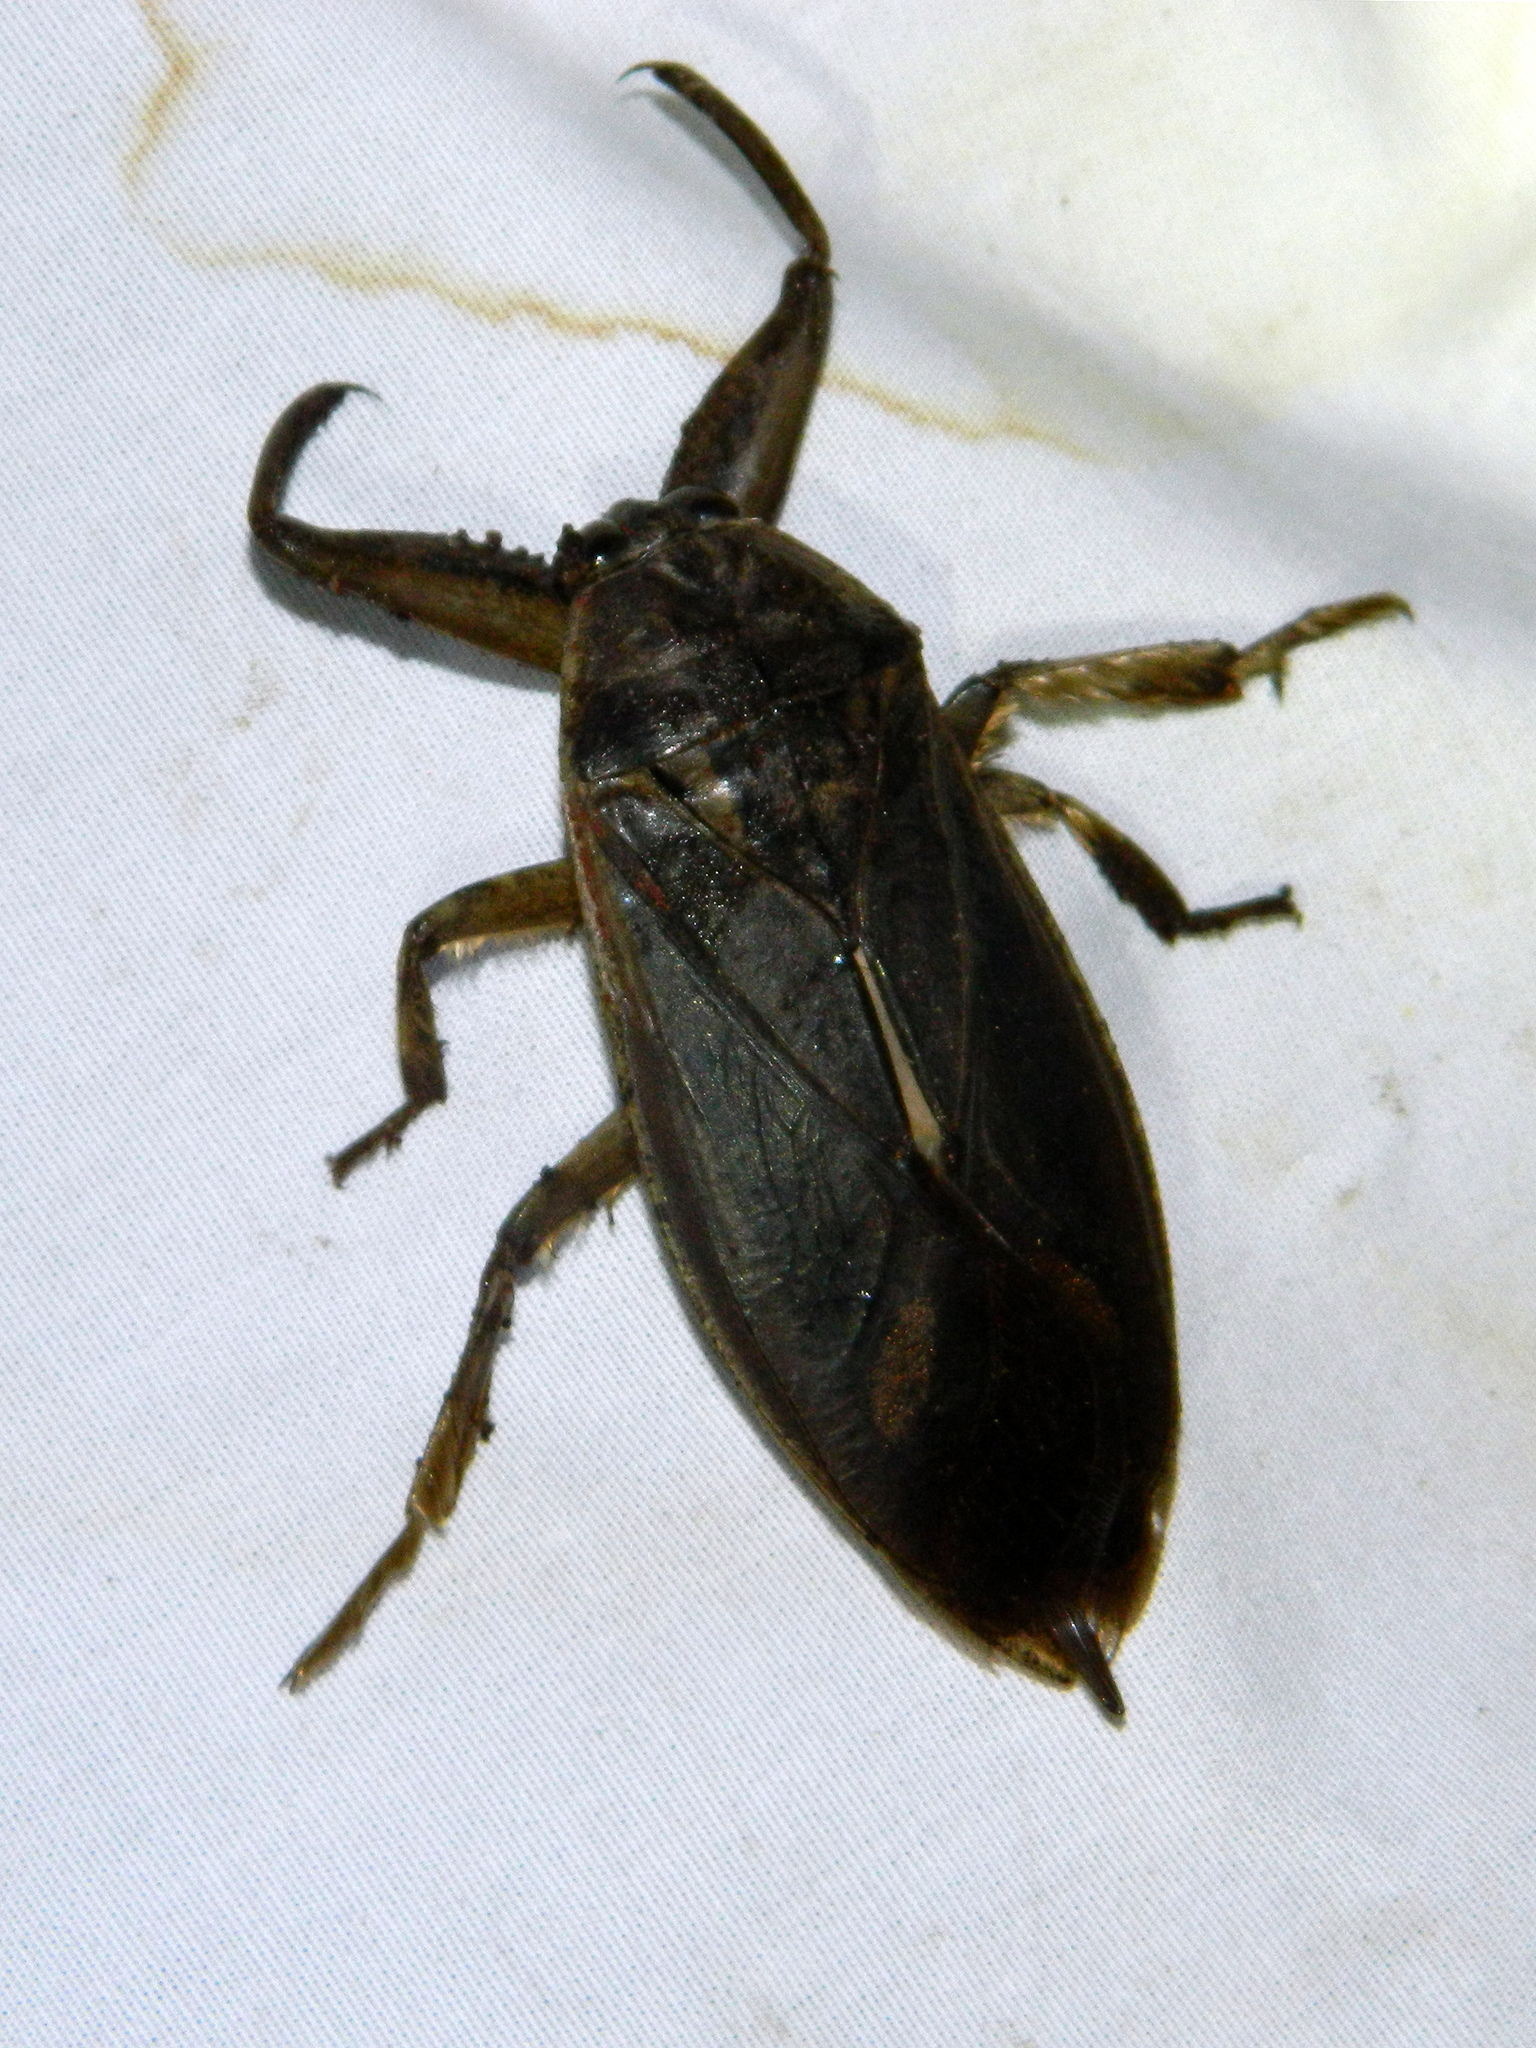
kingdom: Animalia
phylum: Arthropoda
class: Insecta
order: Hemiptera
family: Belostomatidae
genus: Lethocerus
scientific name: Lethocerus americanus
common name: Giant water bug
